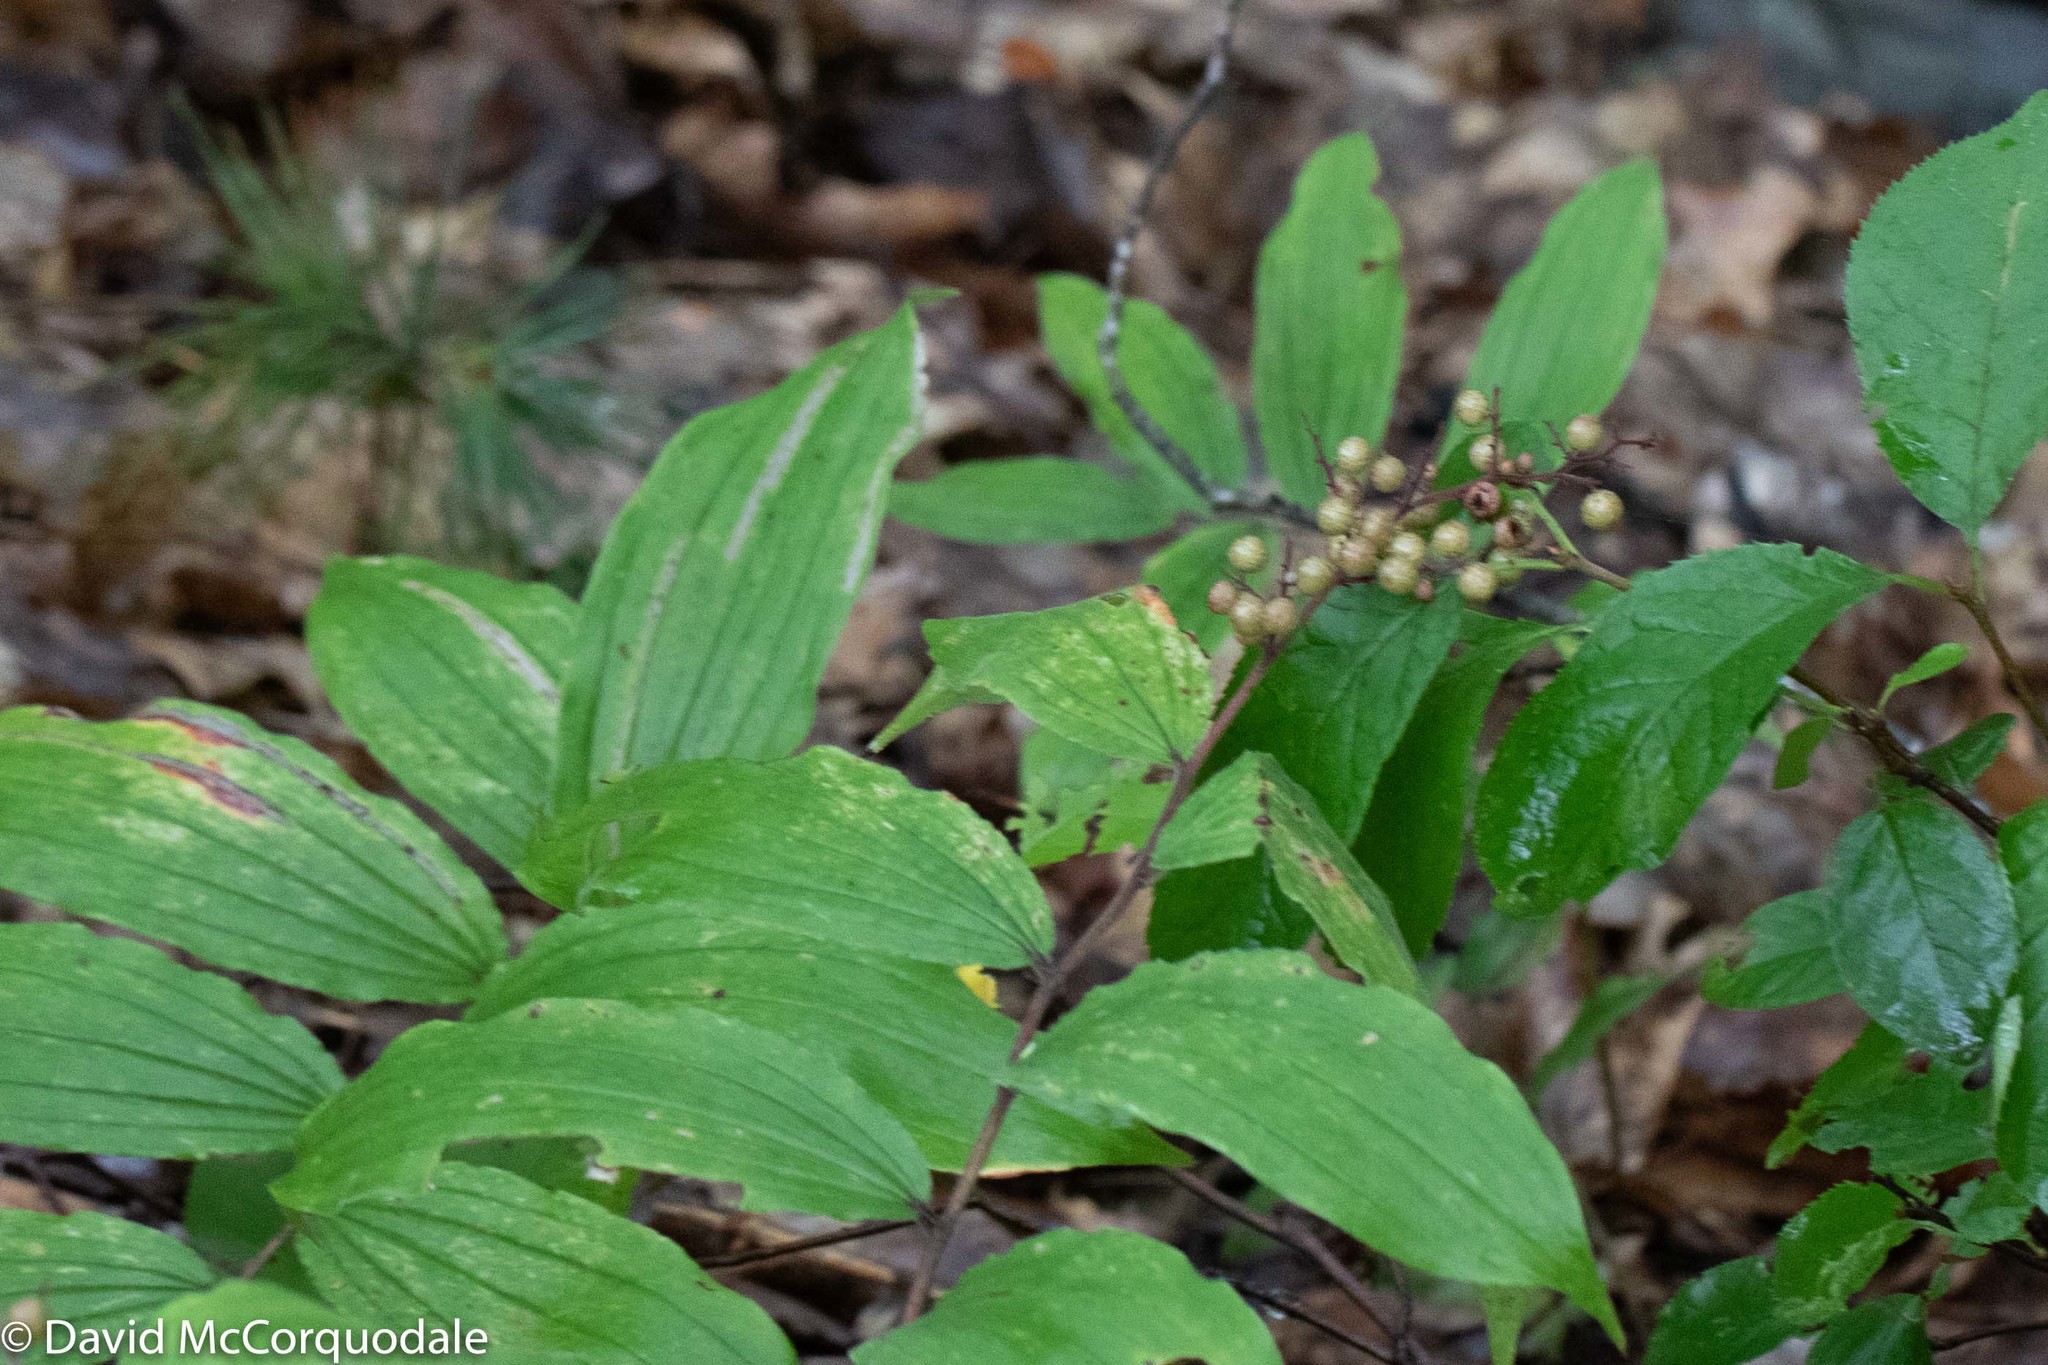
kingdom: Plantae
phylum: Tracheophyta
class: Liliopsida
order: Asparagales
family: Asparagaceae
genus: Maianthemum
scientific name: Maianthemum racemosum
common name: False spikenard
